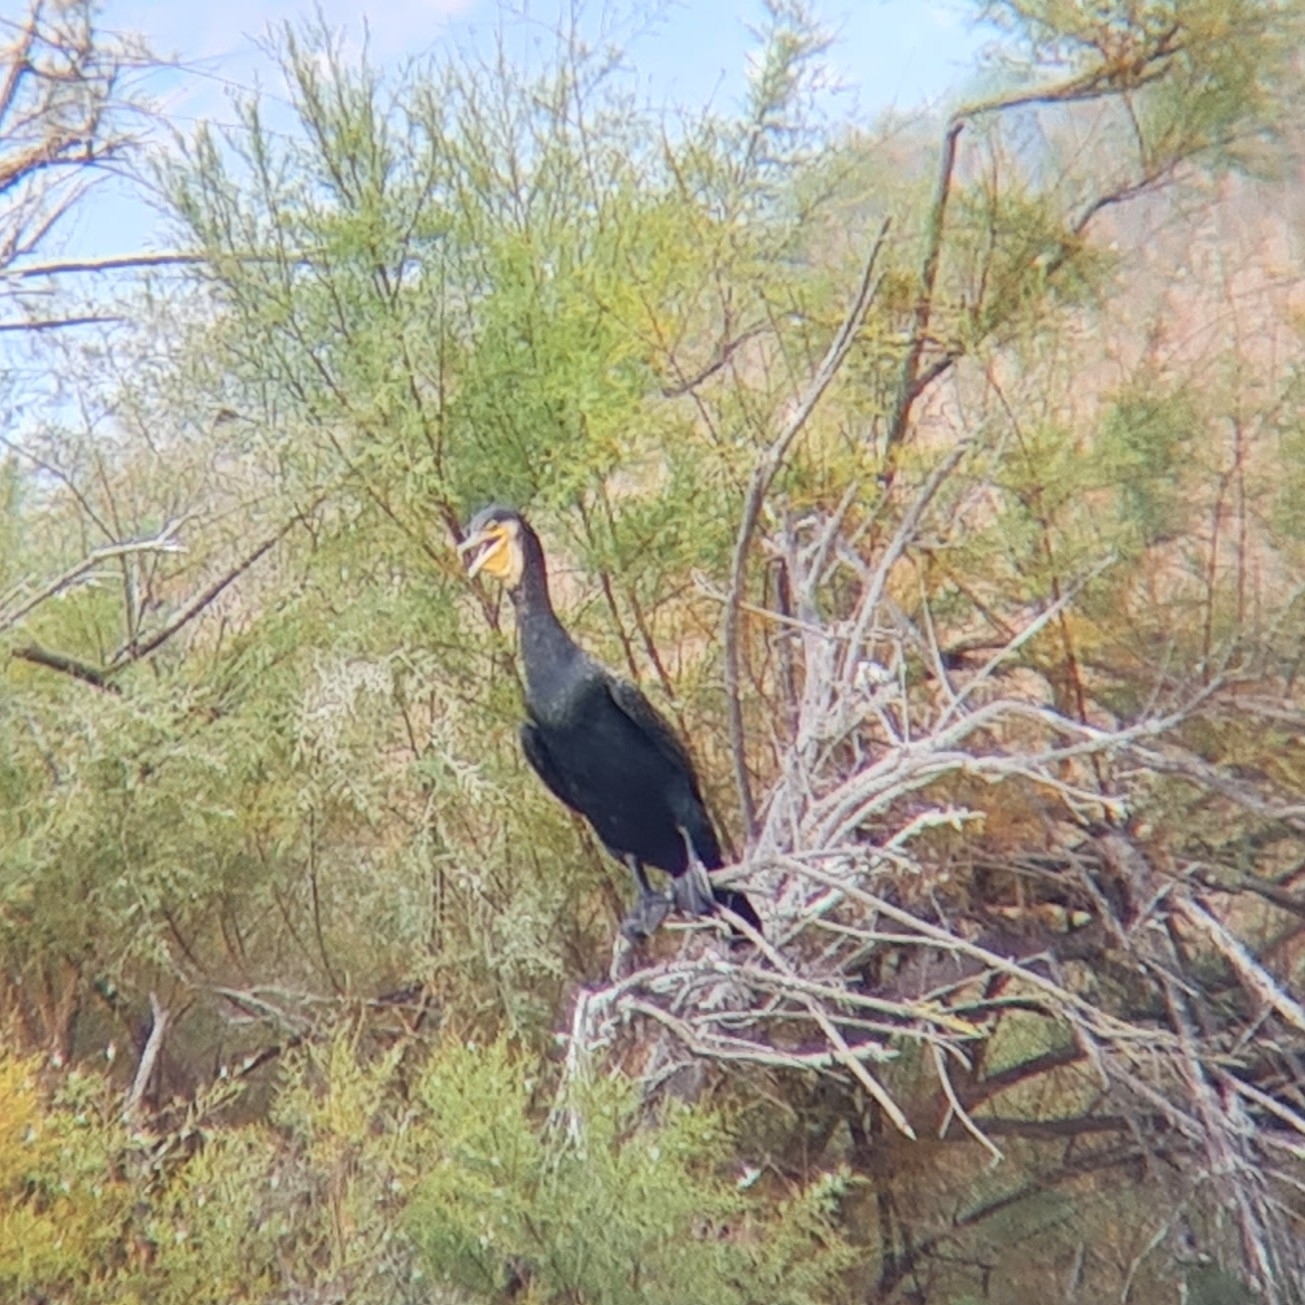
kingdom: Animalia
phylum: Chordata
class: Aves
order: Suliformes
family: Phalacrocoracidae
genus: Phalacrocorax
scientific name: Phalacrocorax carbo
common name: Great cormorant
